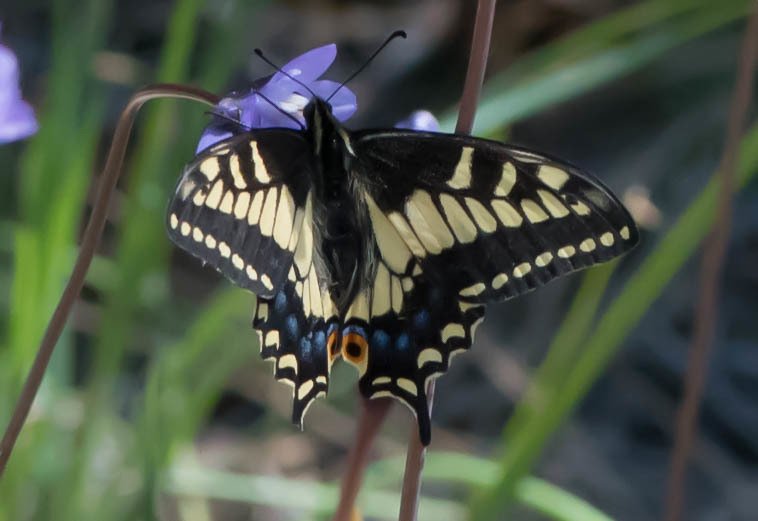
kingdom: Animalia
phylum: Arthropoda
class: Insecta
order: Lepidoptera
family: Papilionidae
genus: Papilio
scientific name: Papilio zelicaon
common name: Anise swallowtail
